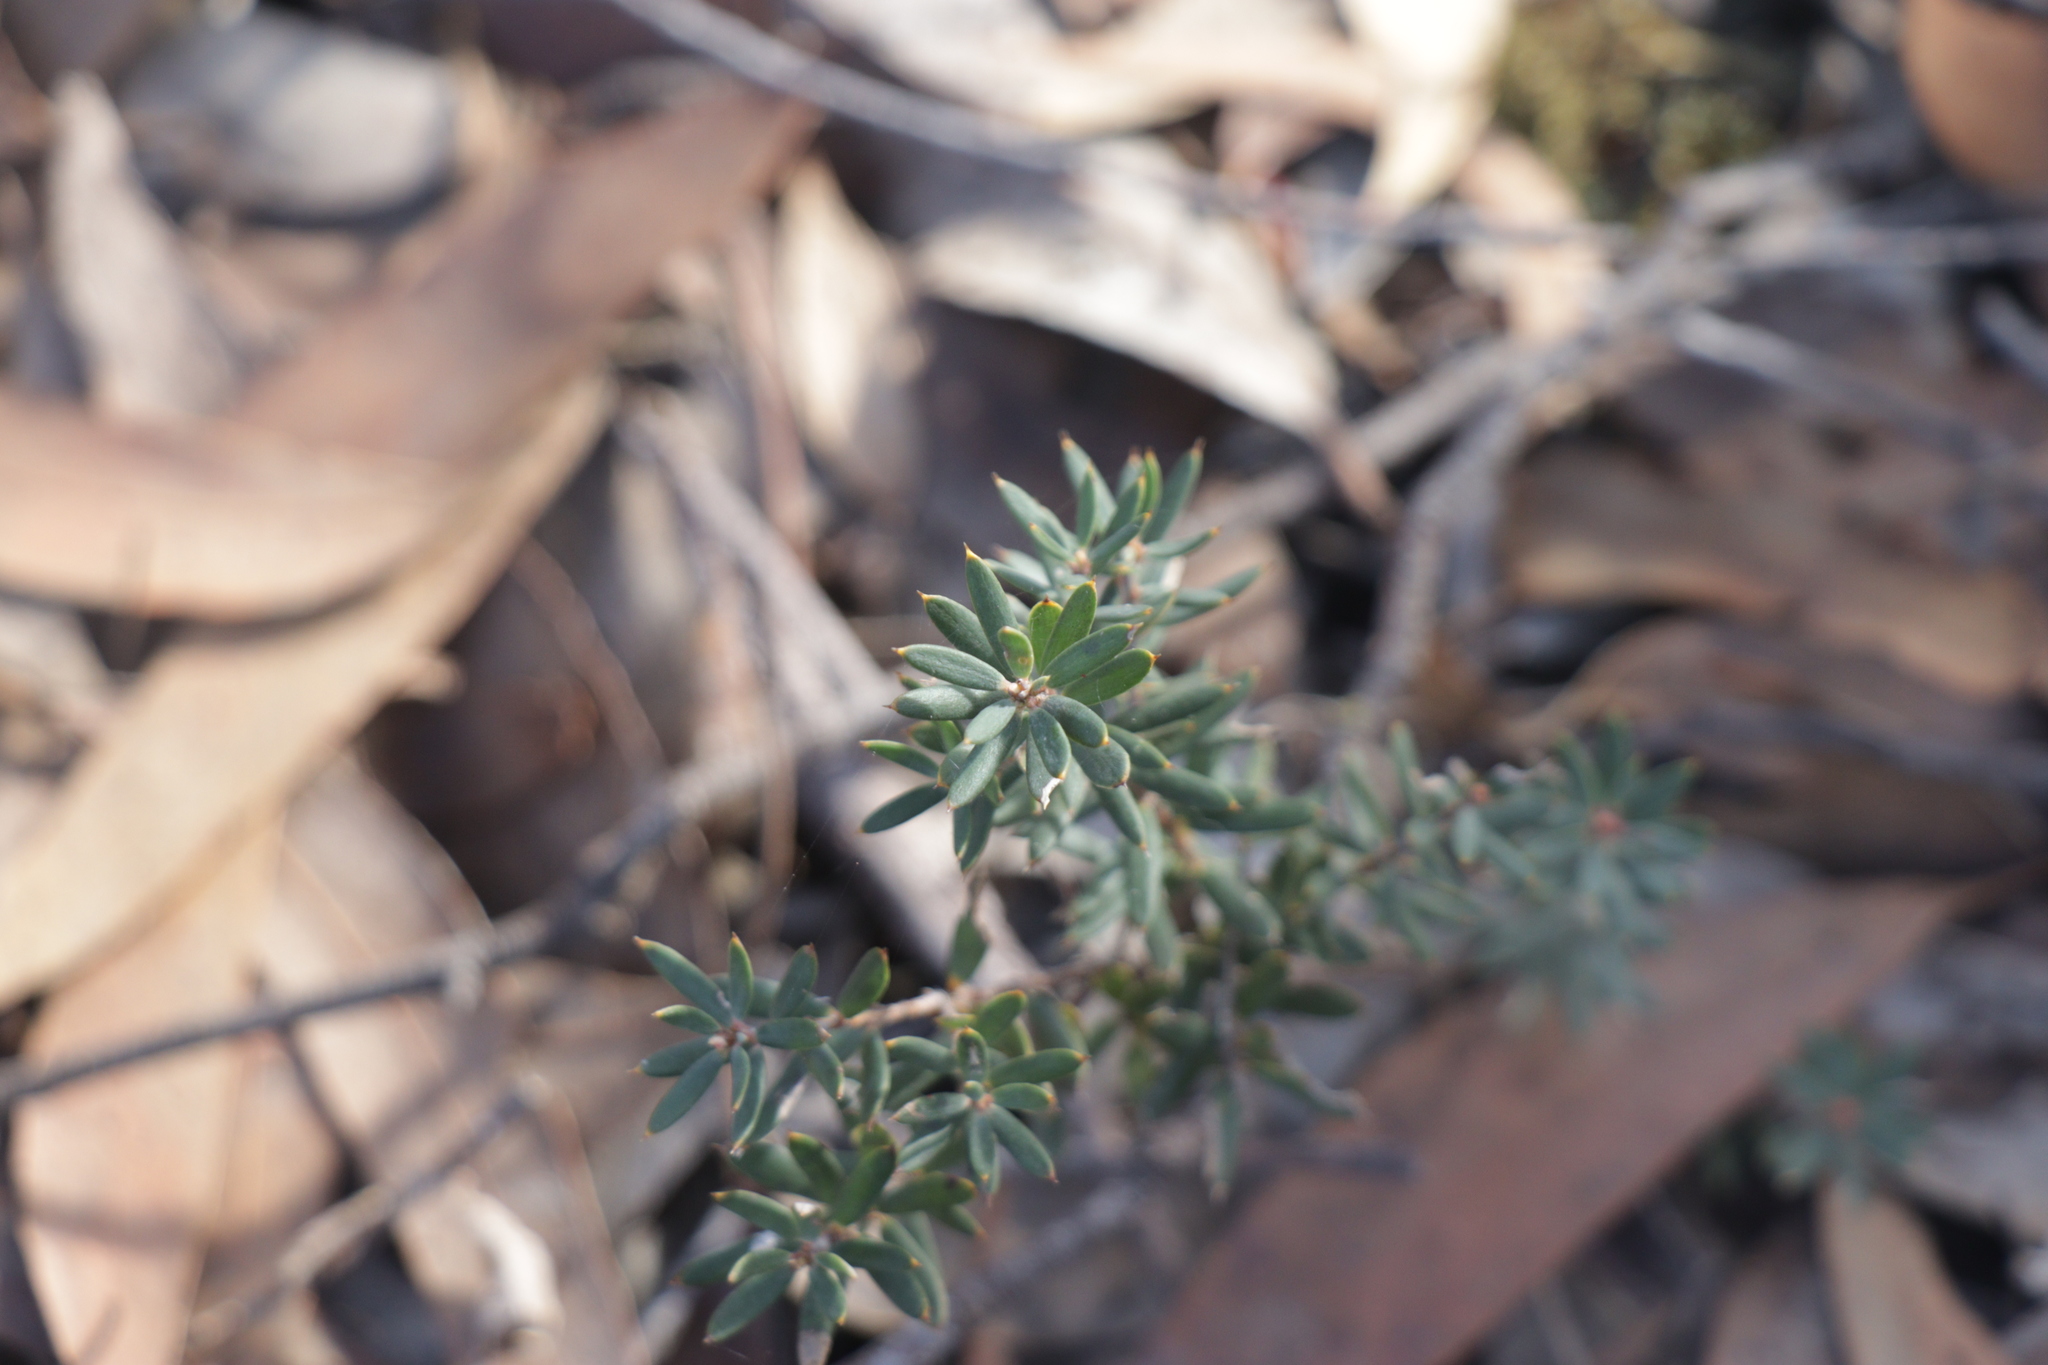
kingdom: Plantae
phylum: Tracheophyta
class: Magnoliopsida
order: Ericales
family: Ericaceae
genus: Styphelia
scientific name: Styphelia humifusa
